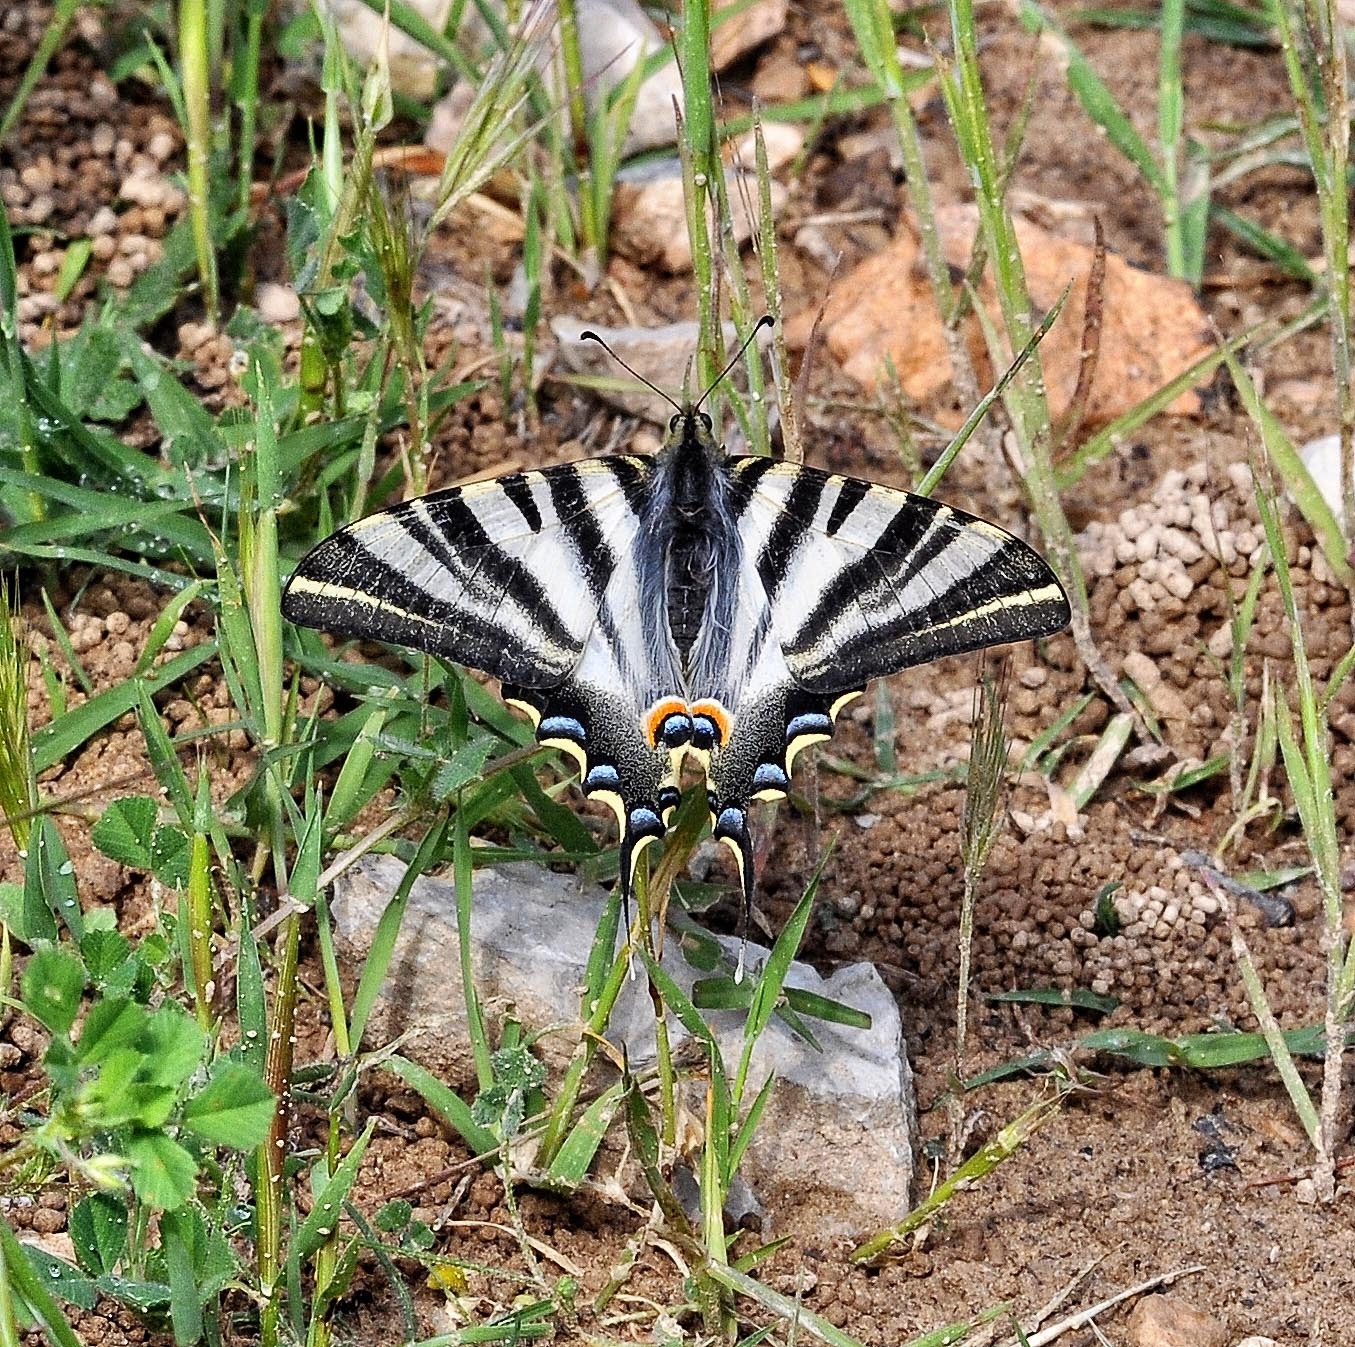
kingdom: Animalia
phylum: Arthropoda
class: Insecta
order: Lepidoptera
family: Papilionidae
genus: Iphiclides
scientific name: Iphiclides feisthamelii
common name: Iberian scarce swallowtail
